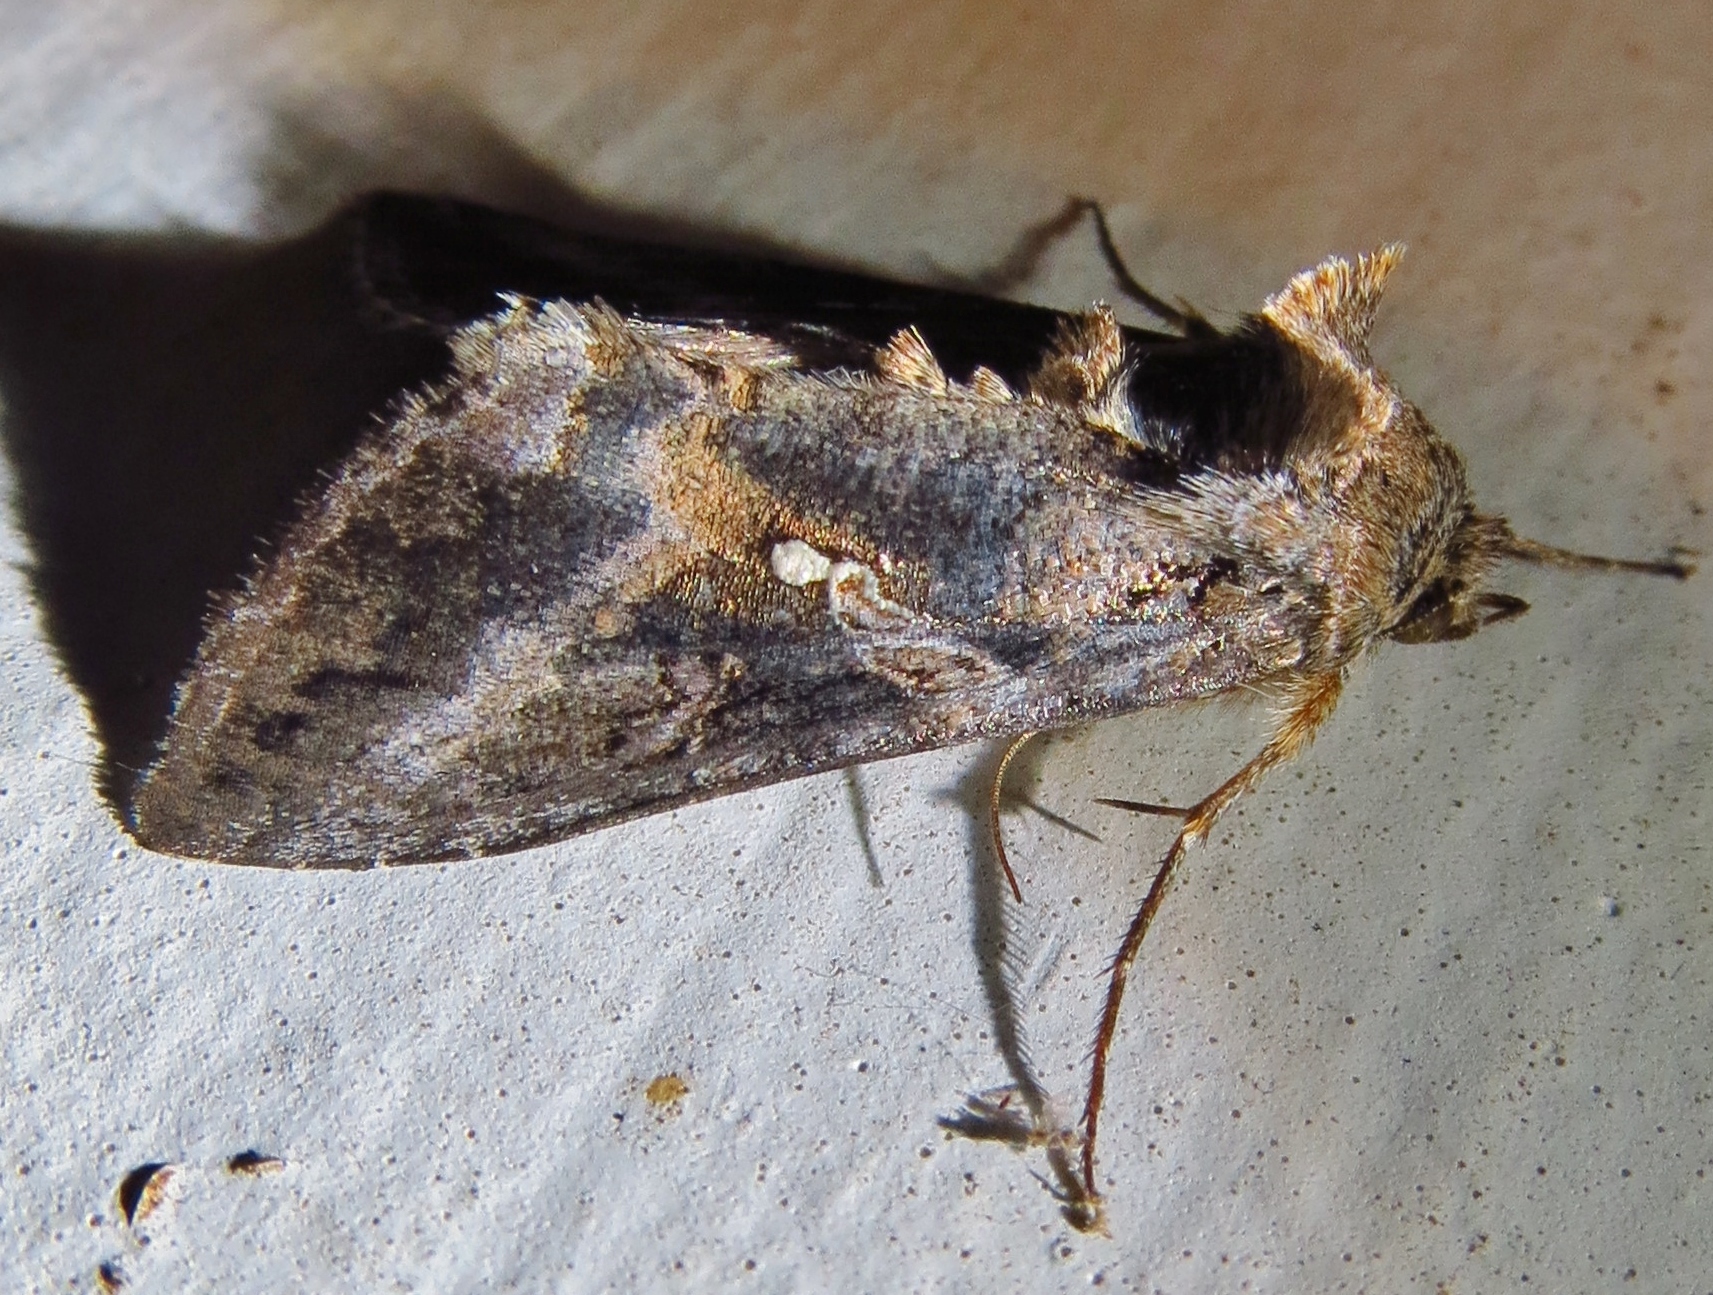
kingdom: Animalia
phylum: Arthropoda
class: Insecta
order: Lepidoptera
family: Noctuidae
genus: Rachiplusia
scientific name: Rachiplusia ou
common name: Gray looper moth
